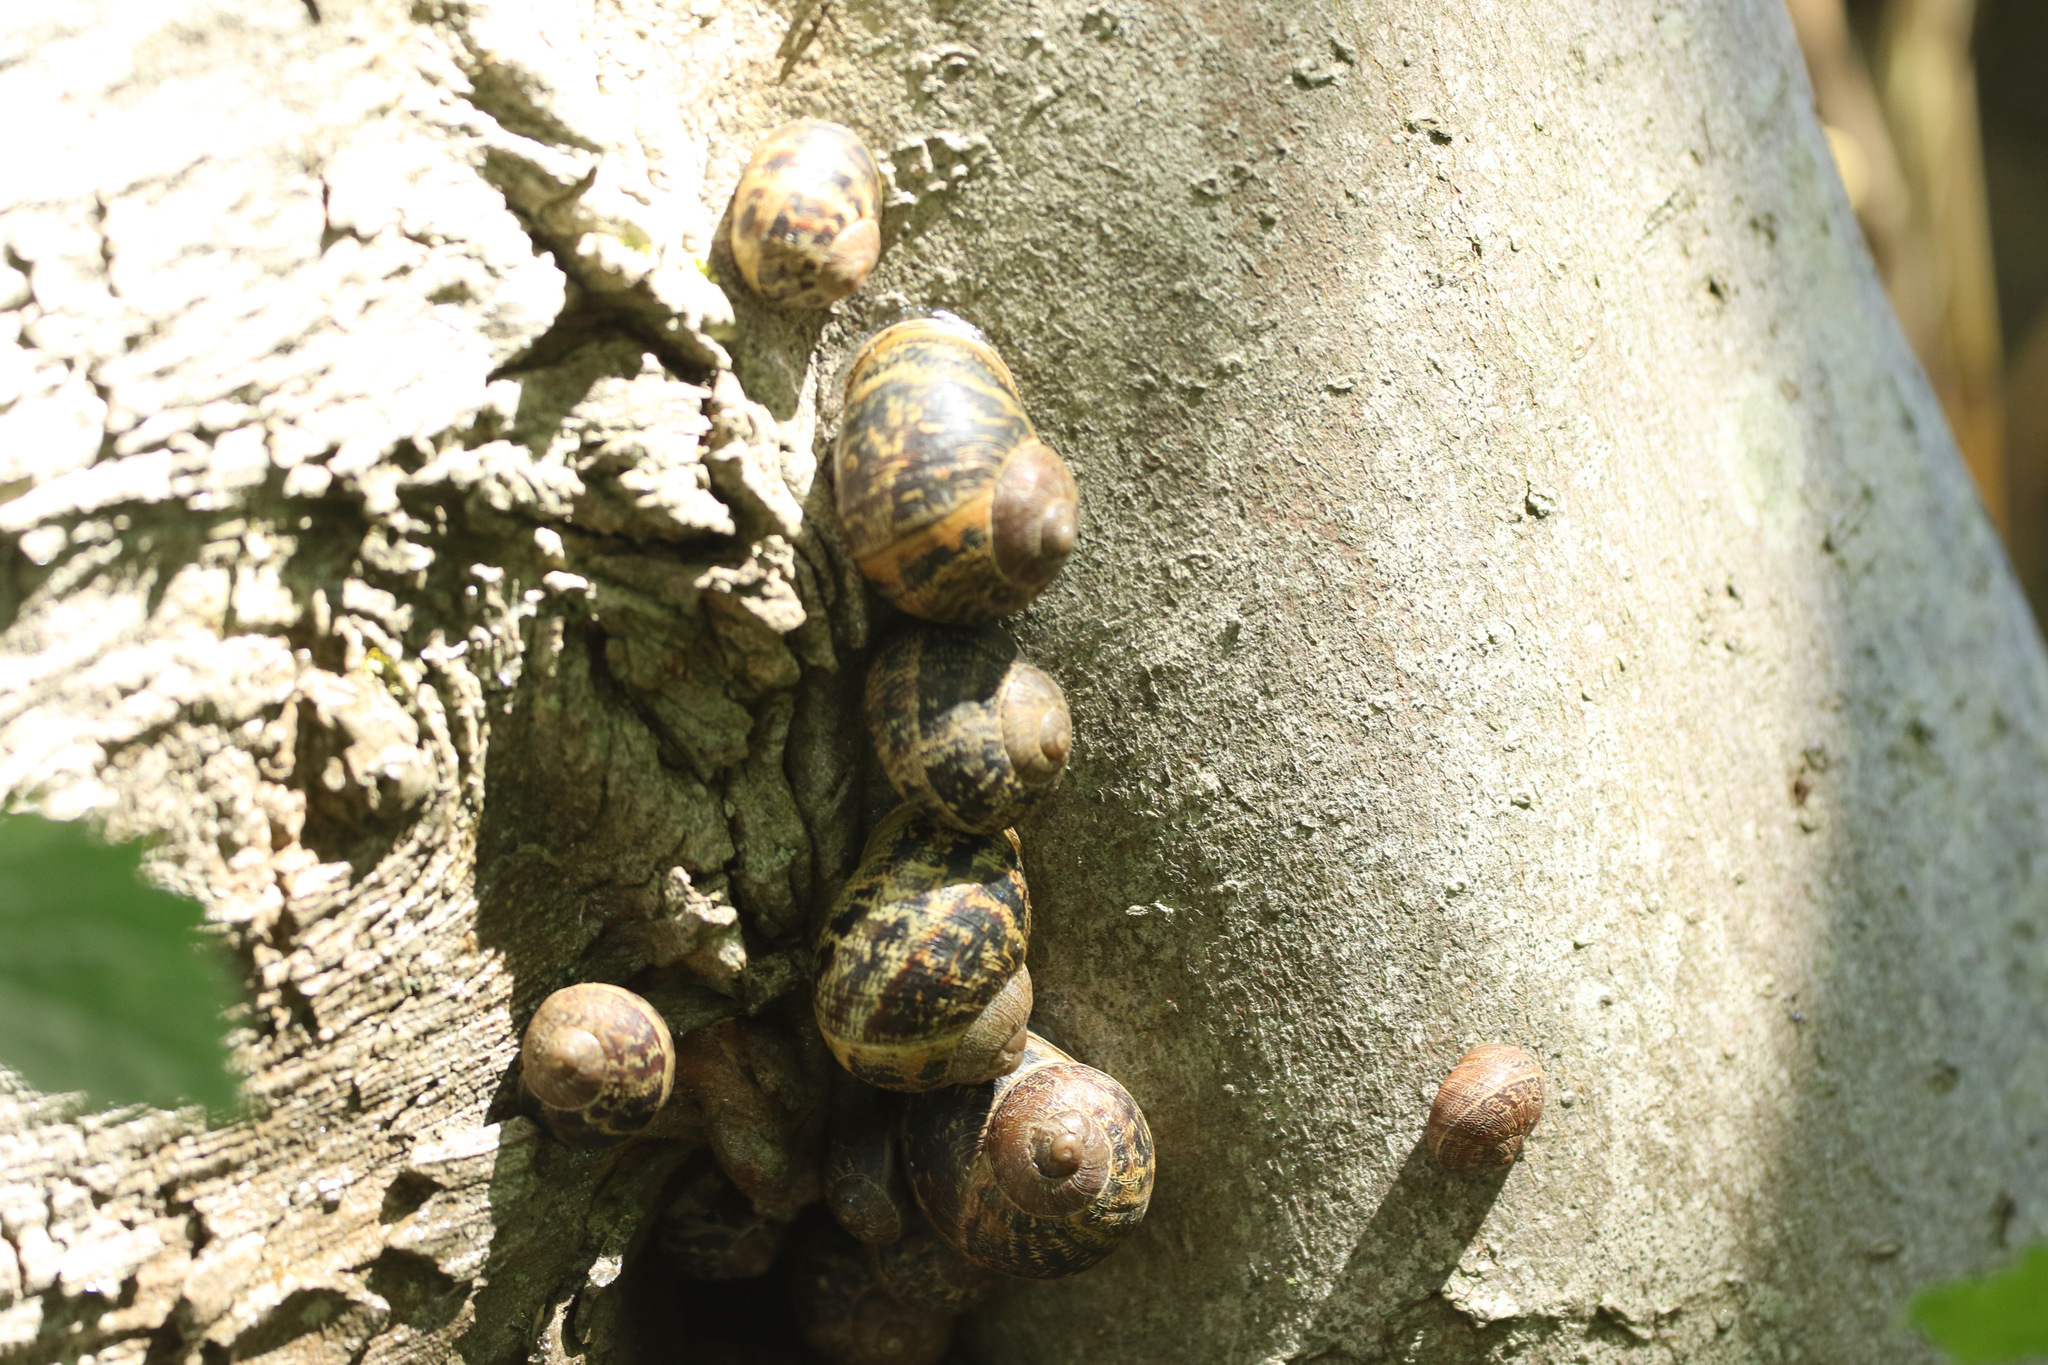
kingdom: Animalia
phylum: Mollusca
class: Gastropoda
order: Stylommatophora
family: Helicidae
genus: Cornu
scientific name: Cornu aspersum
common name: Brown garden snail
